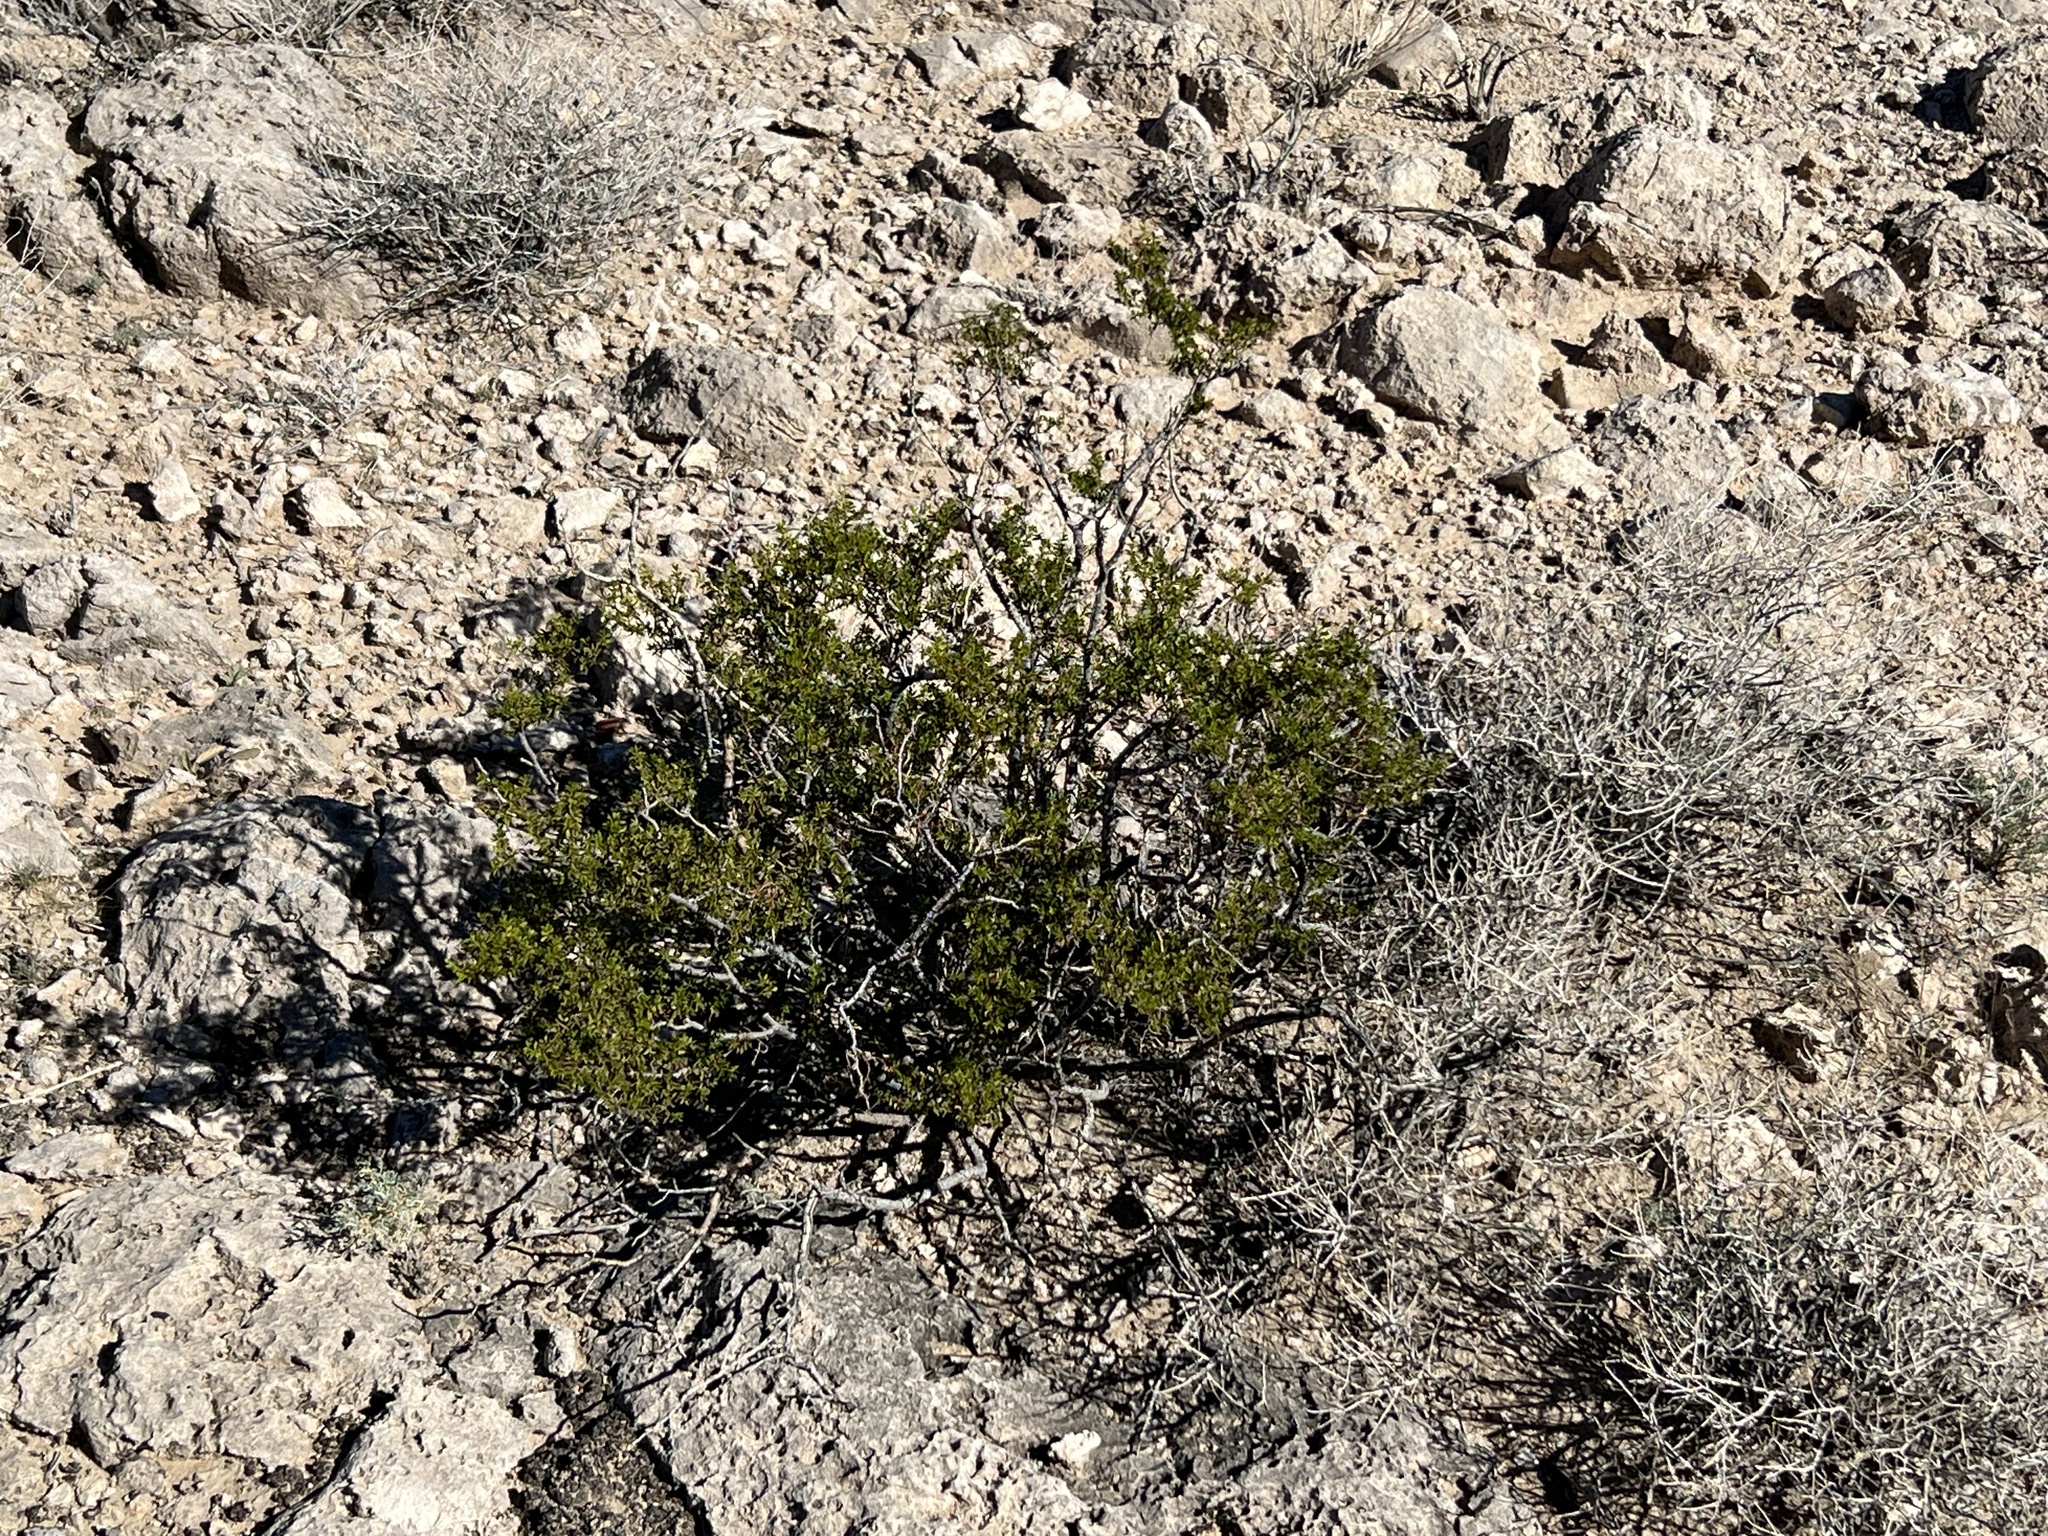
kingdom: Plantae
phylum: Tracheophyta
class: Magnoliopsida
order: Zygophyllales
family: Zygophyllaceae
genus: Larrea
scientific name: Larrea tridentata
